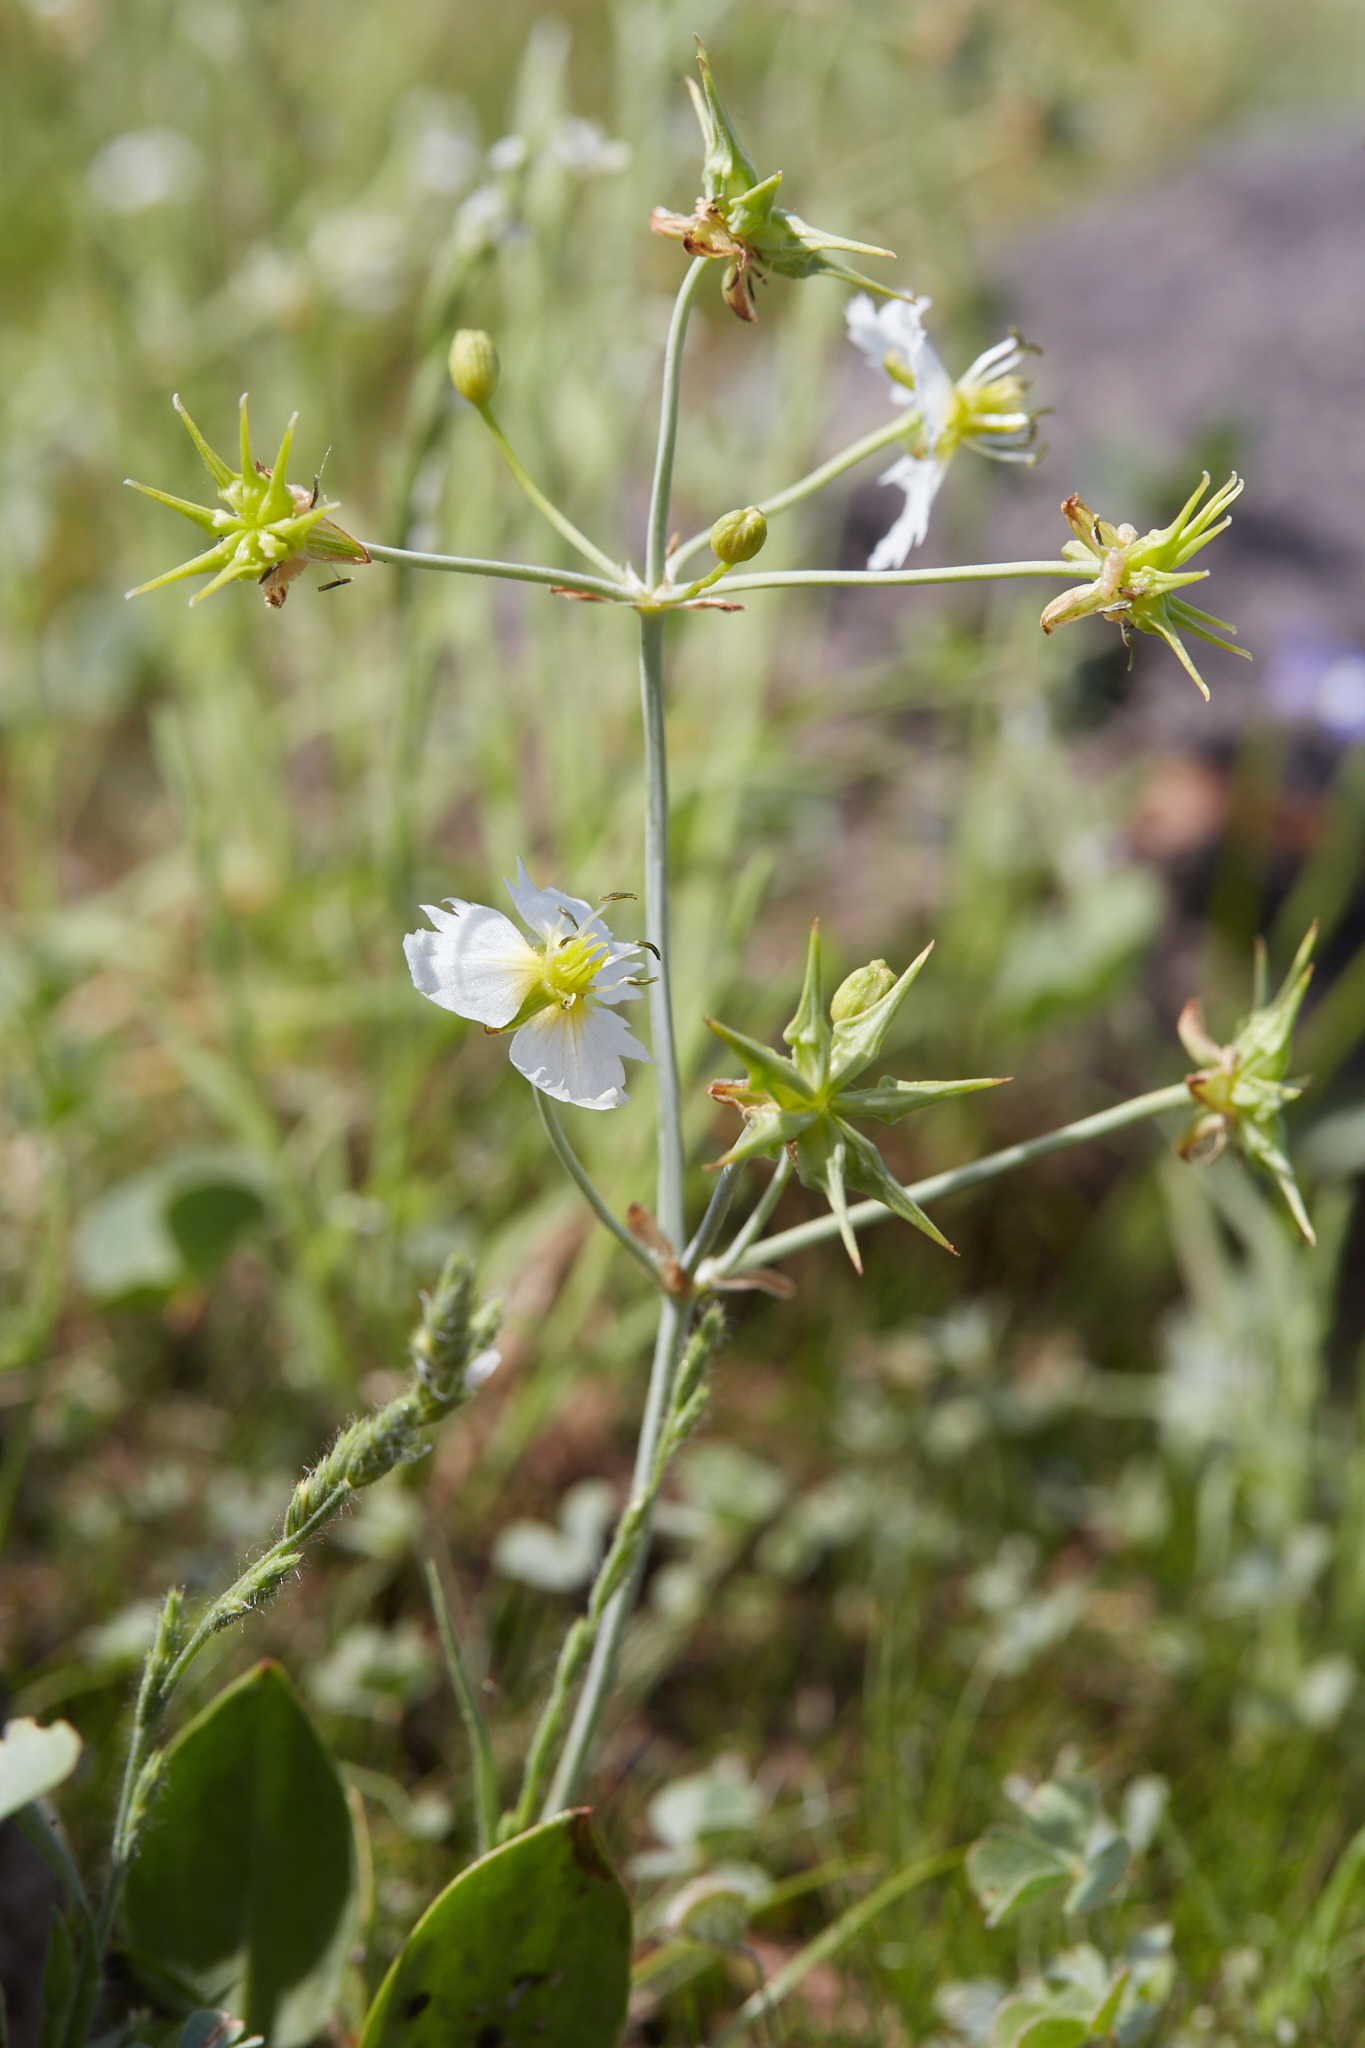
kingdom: Plantae
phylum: Tracheophyta
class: Liliopsida
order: Alismatales
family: Alismataceae
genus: Damasonium
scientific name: Damasonium californicum
